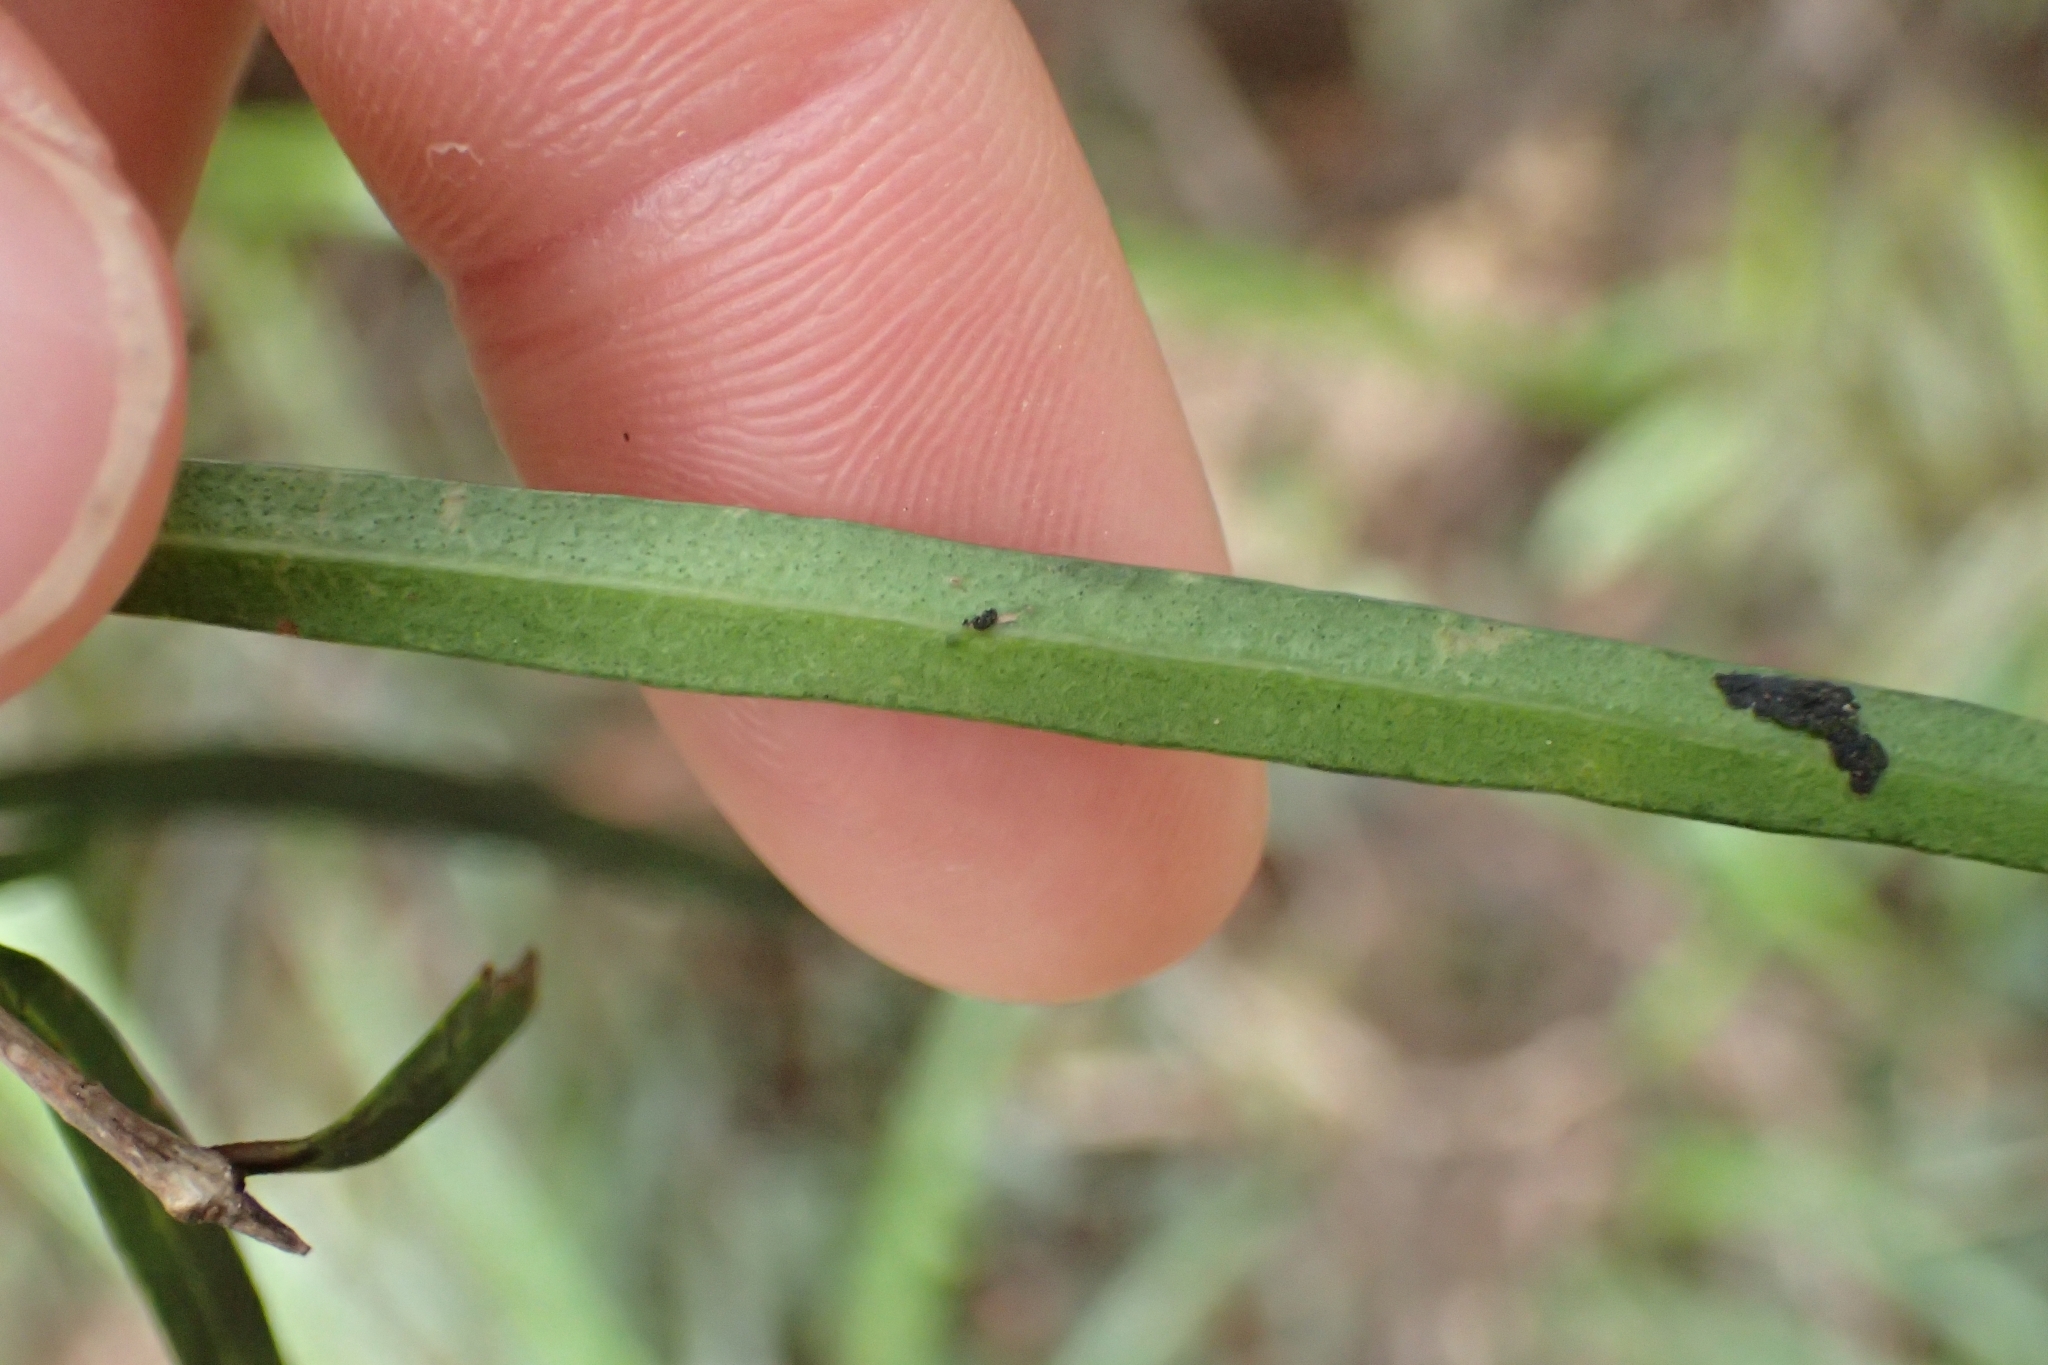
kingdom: Plantae
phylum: Tracheophyta
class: Magnoliopsida
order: Lamiales
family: Oleaceae
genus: Nestegis
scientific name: Nestegis montana
